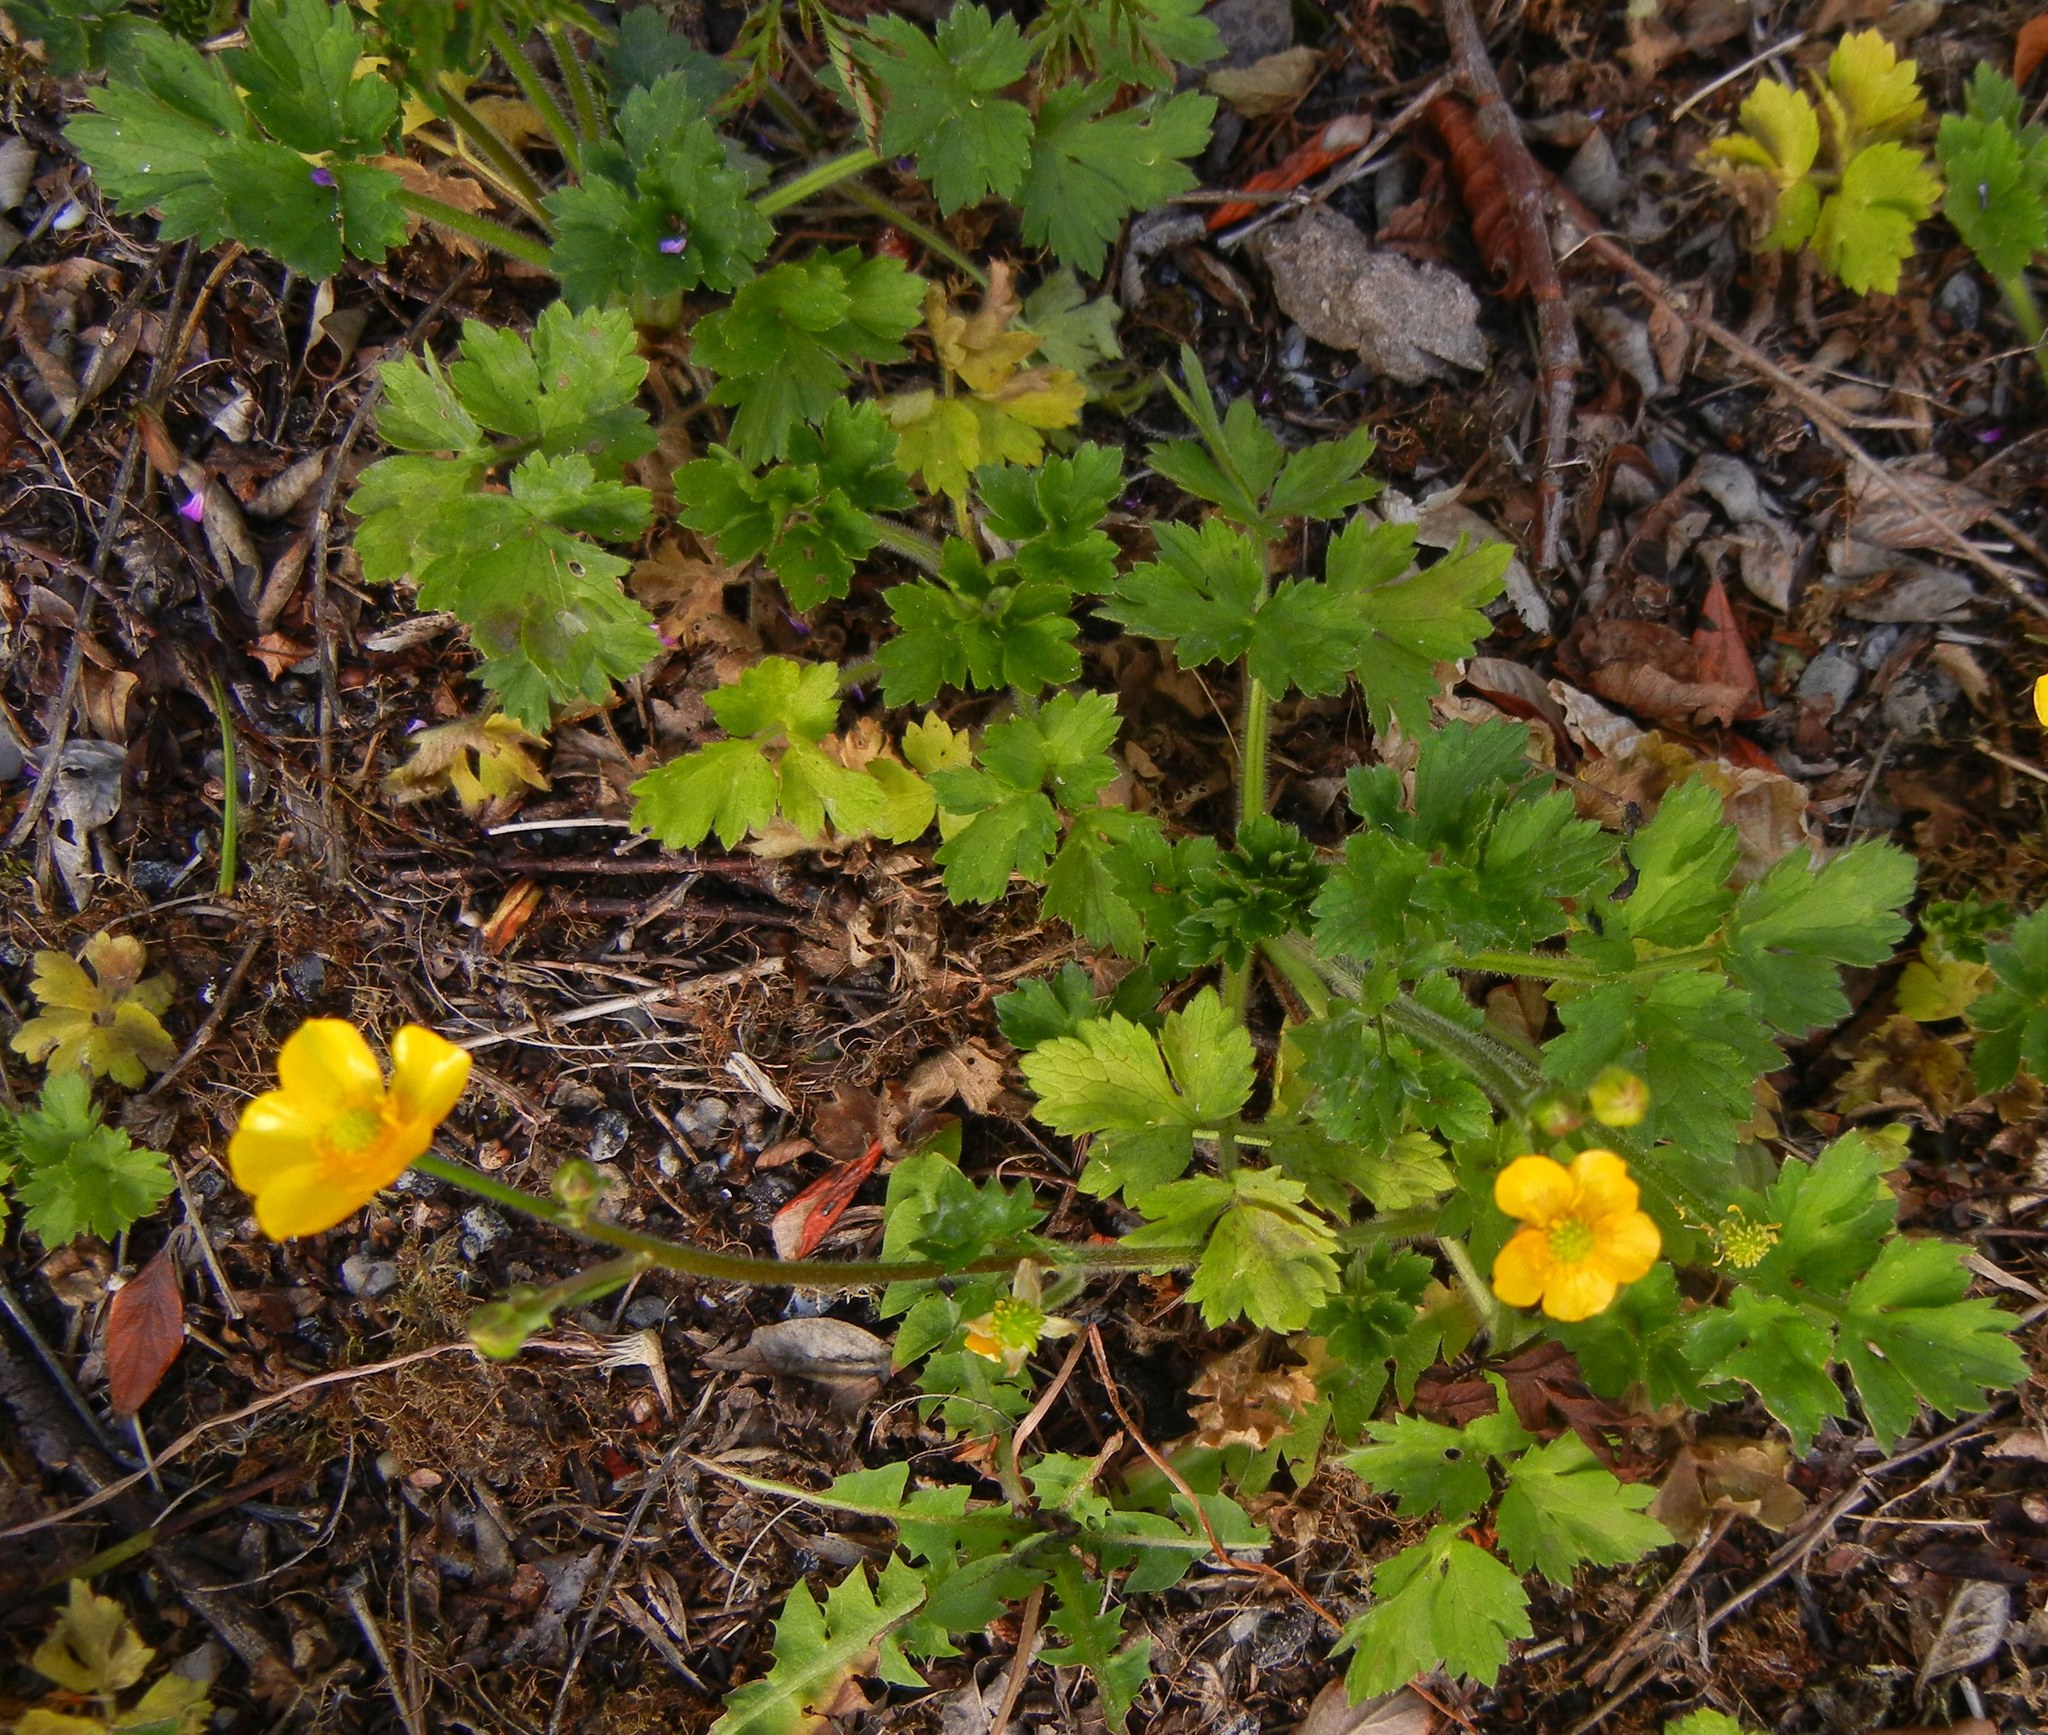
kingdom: Plantae
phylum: Tracheophyta
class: Magnoliopsida
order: Ranunculales
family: Ranunculaceae
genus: Ranunculus
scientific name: Ranunculus repens
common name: Creeping buttercup
